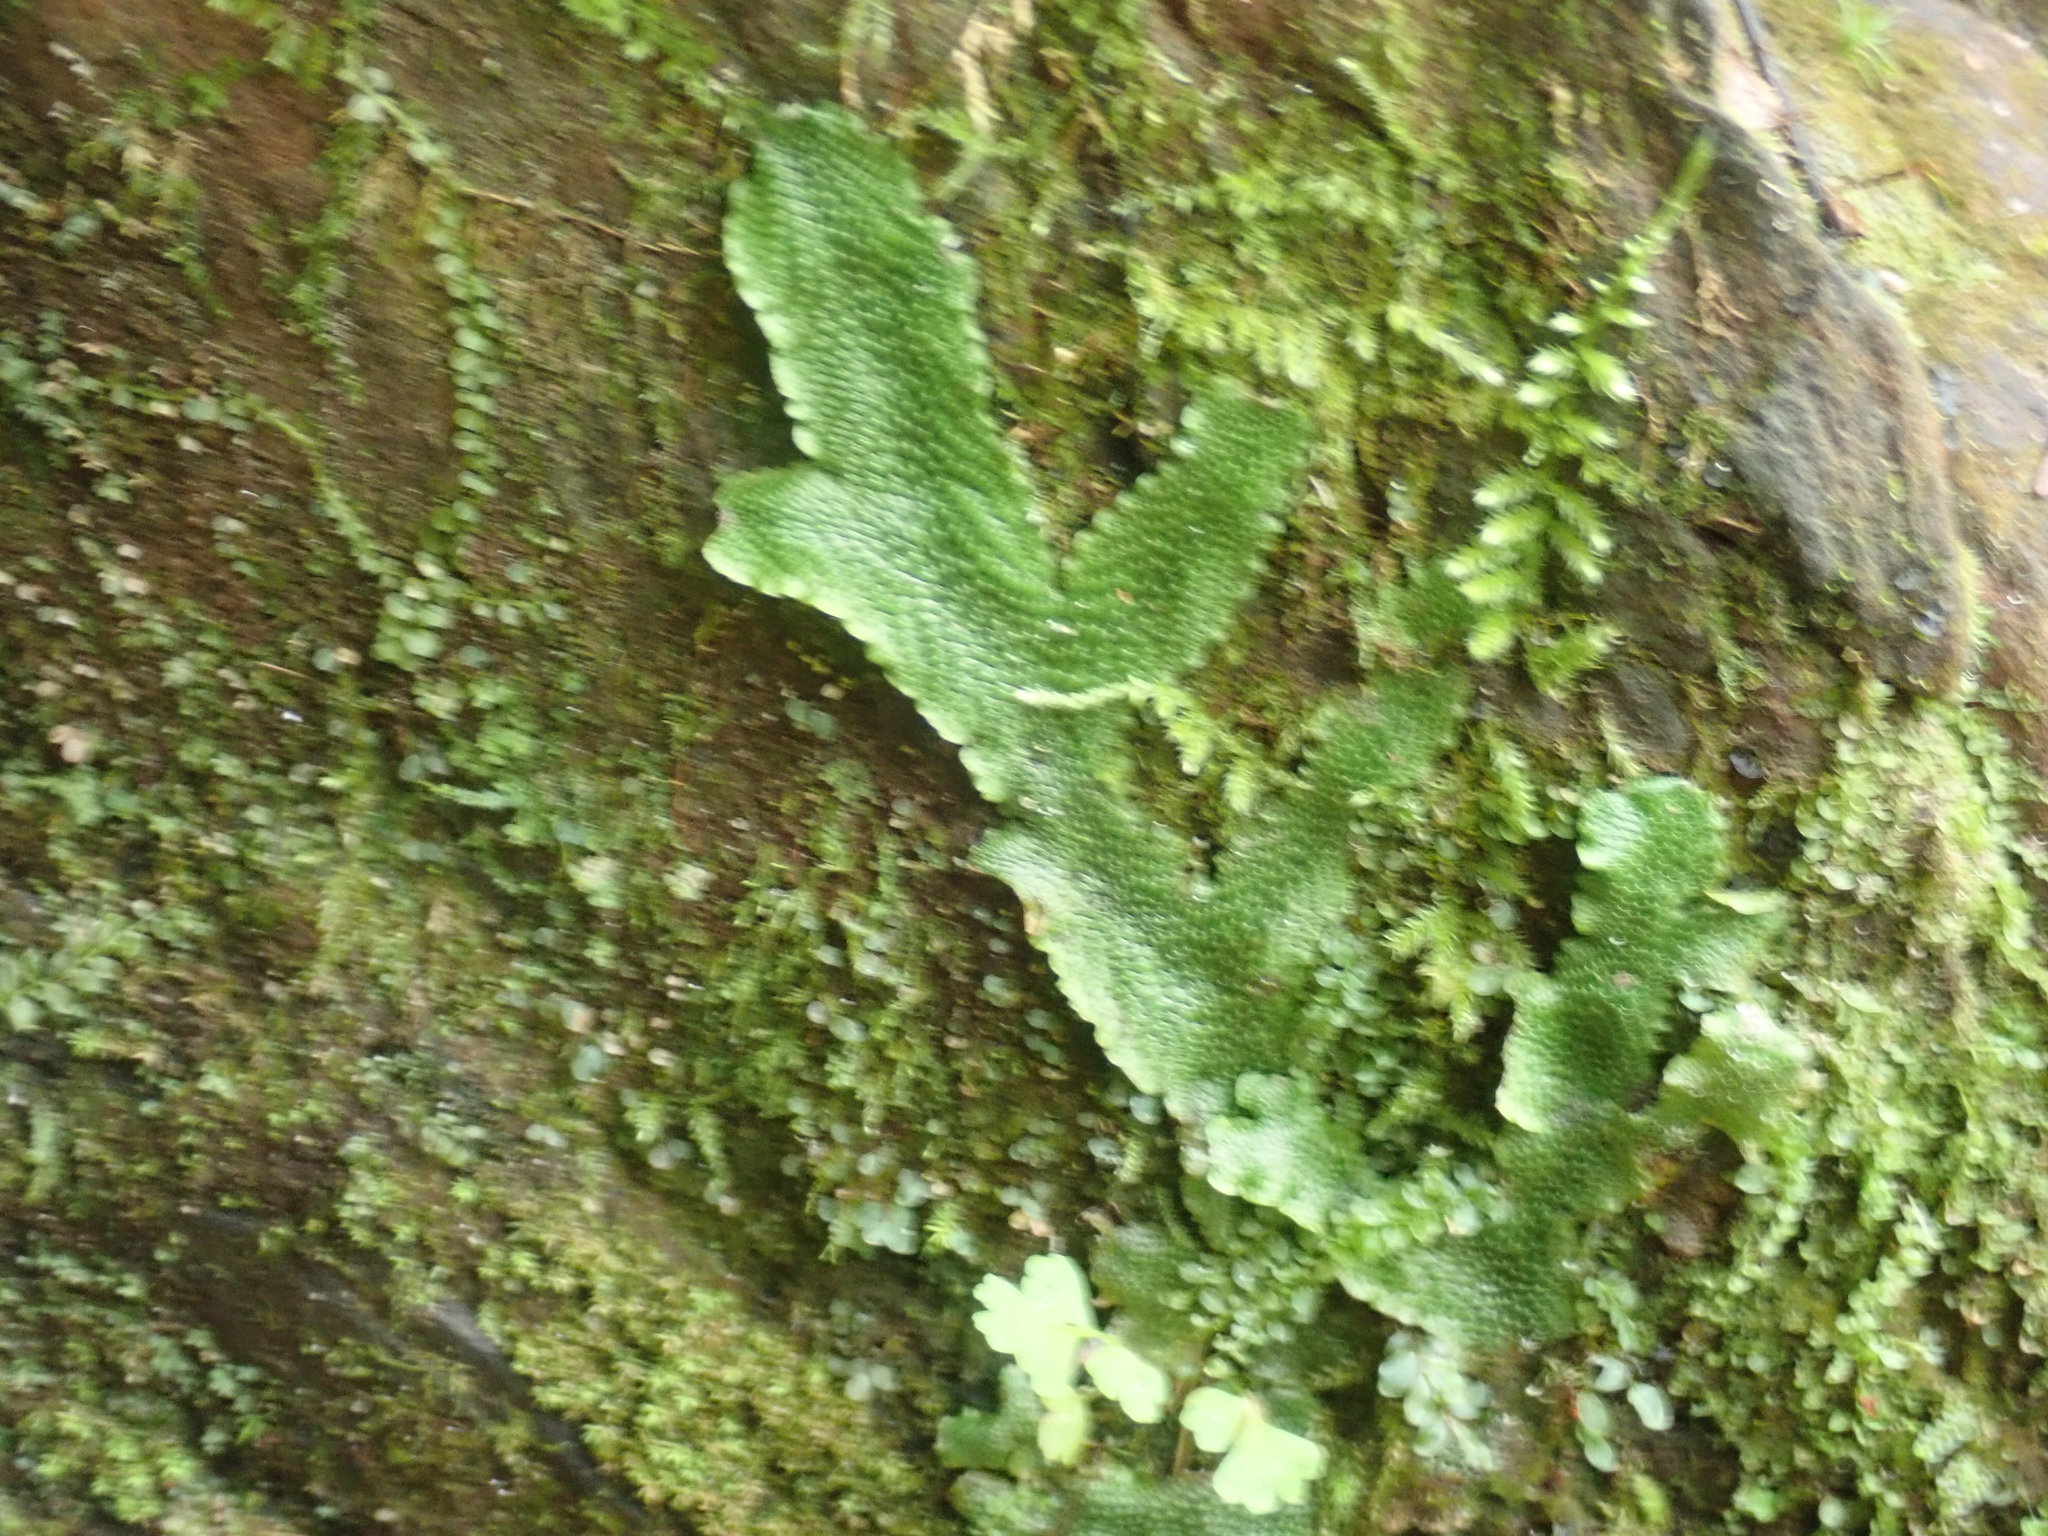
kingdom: Plantae
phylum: Marchantiophyta
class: Marchantiopsida
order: Marchantiales
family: Conocephalaceae
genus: Conocephalum
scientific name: Conocephalum salebrosum
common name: Cat-tongue liverwort
